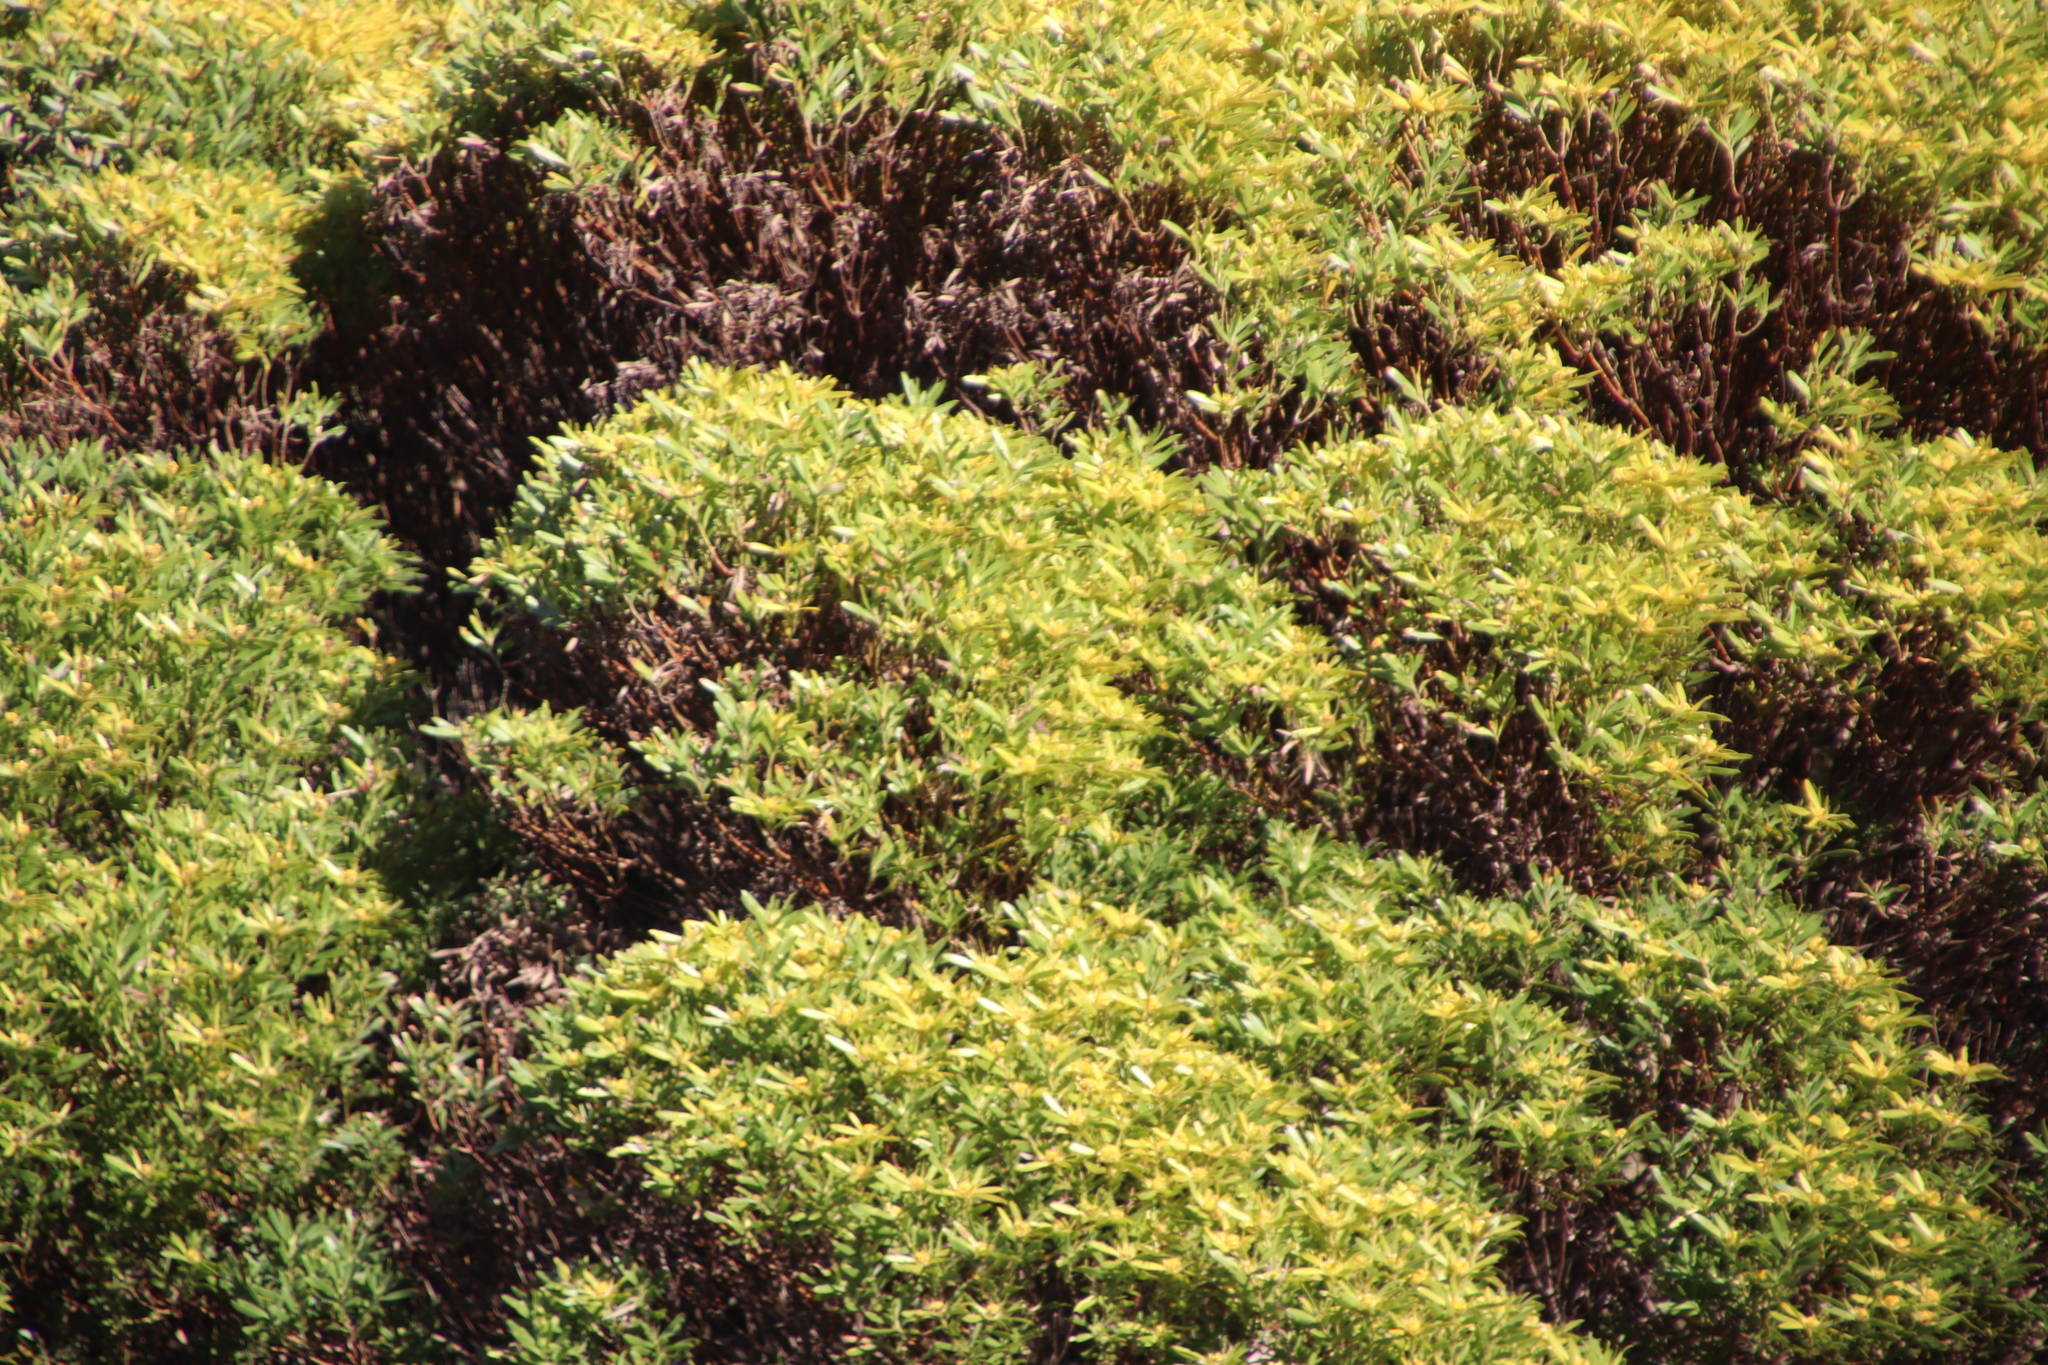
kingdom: Plantae
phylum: Tracheophyta
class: Magnoliopsida
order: Proteales
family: Proteaceae
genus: Leucadendron
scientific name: Leucadendron coniferum
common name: Dune conebush
